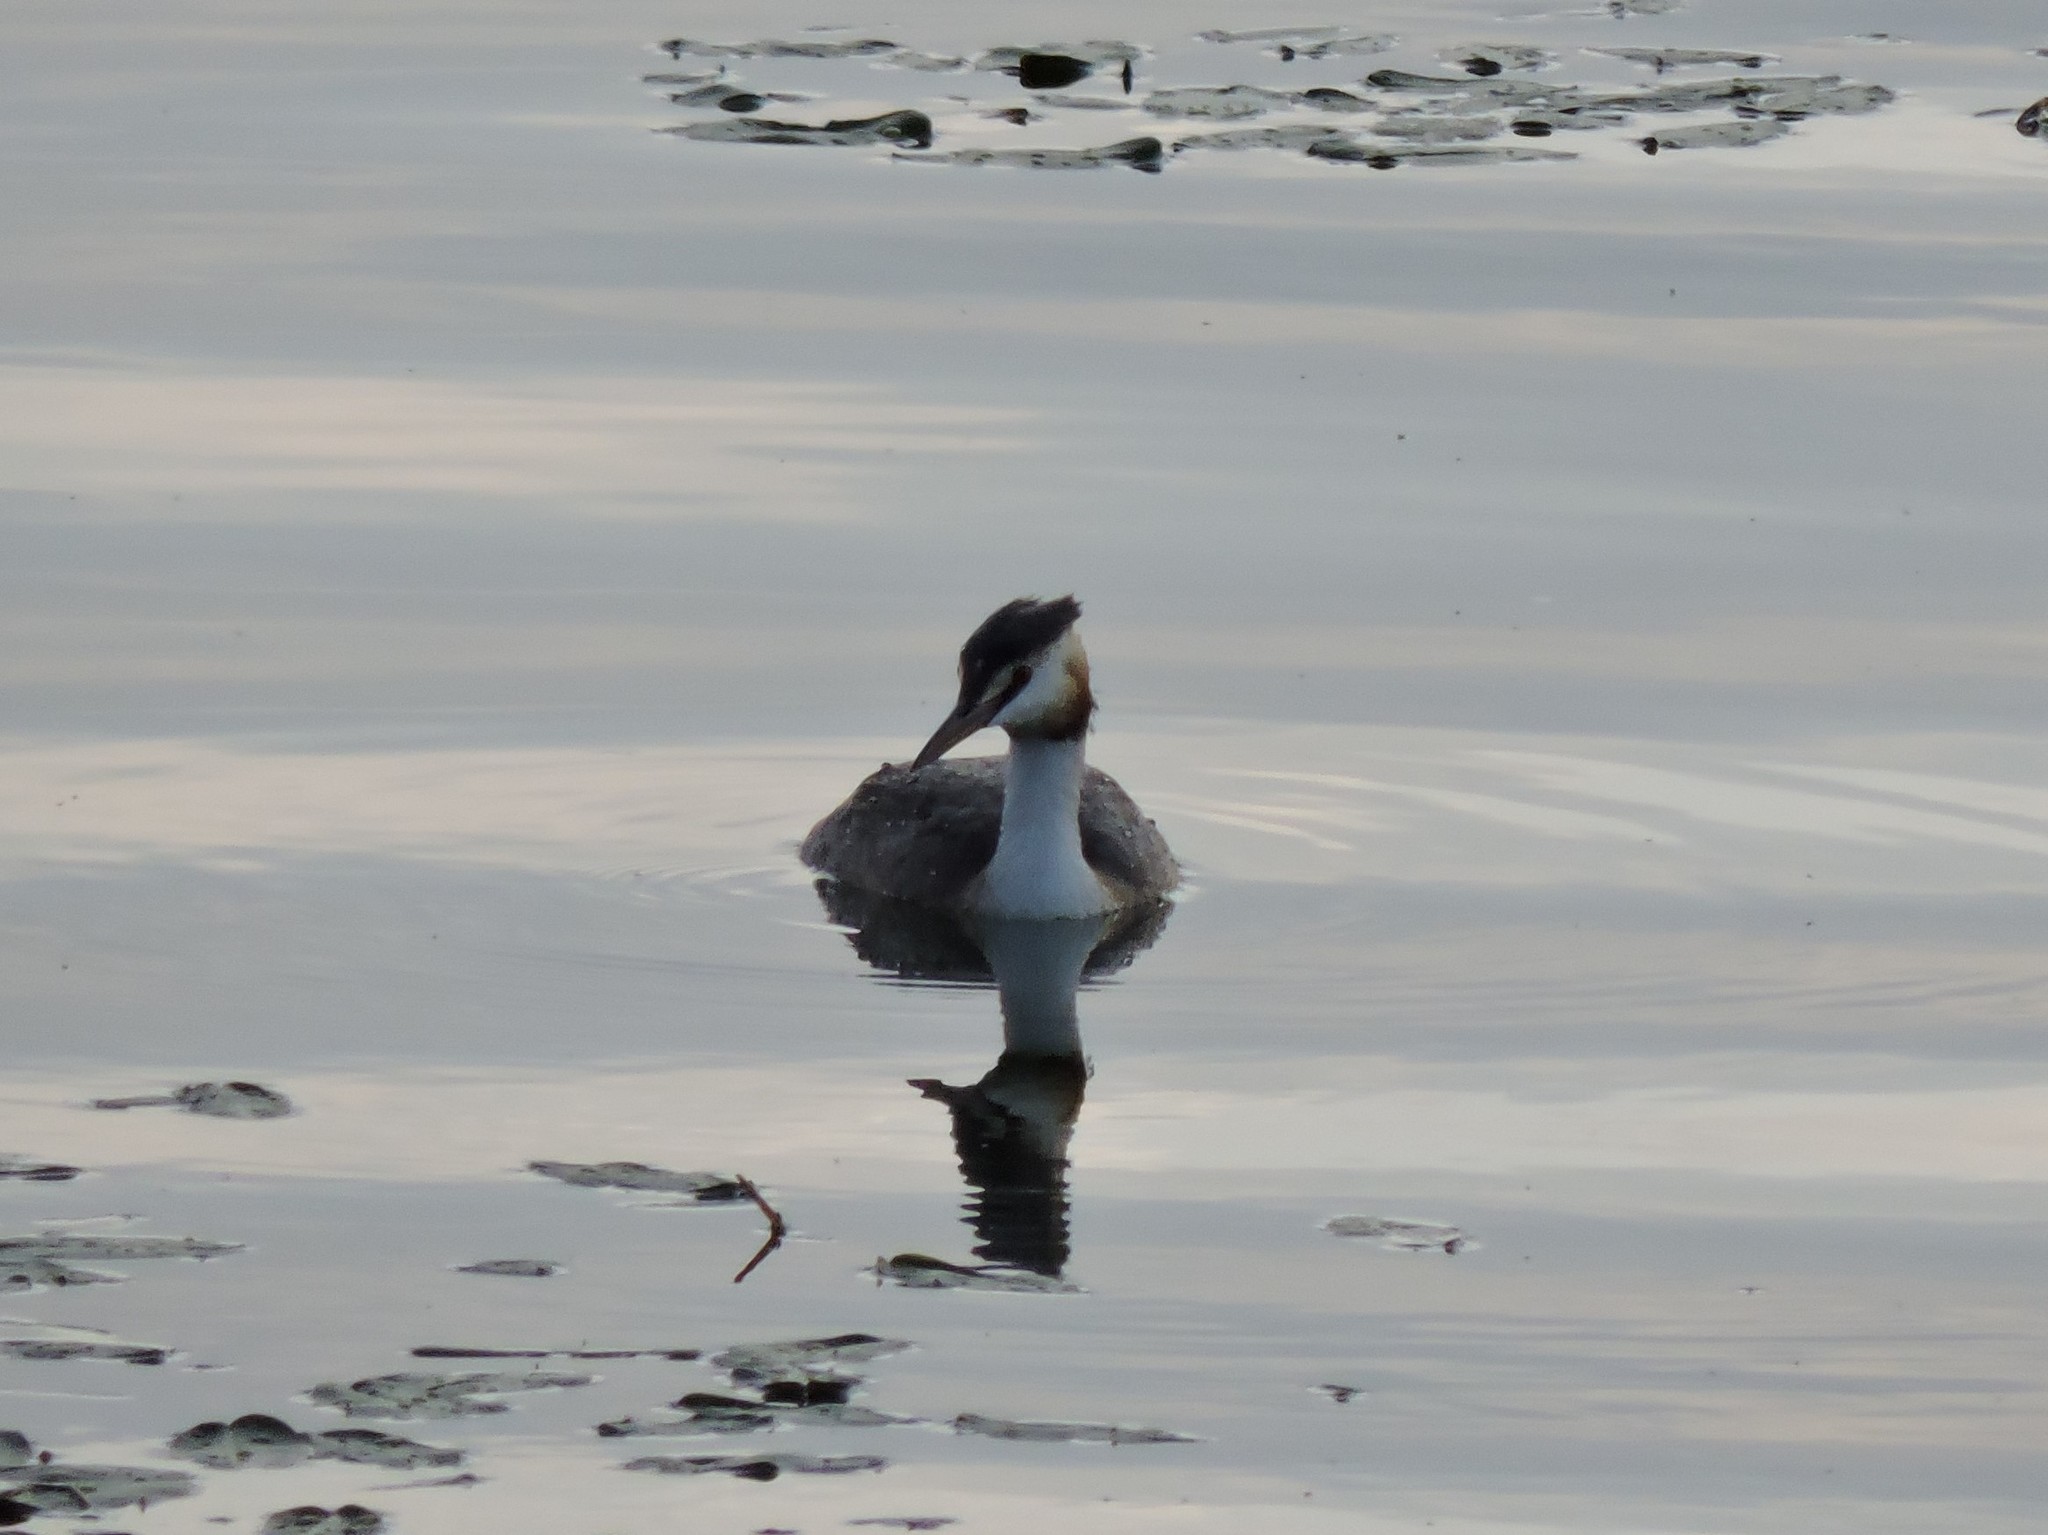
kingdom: Animalia
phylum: Chordata
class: Aves
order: Podicipediformes
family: Podicipedidae
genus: Podiceps
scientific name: Podiceps cristatus
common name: Great crested grebe
